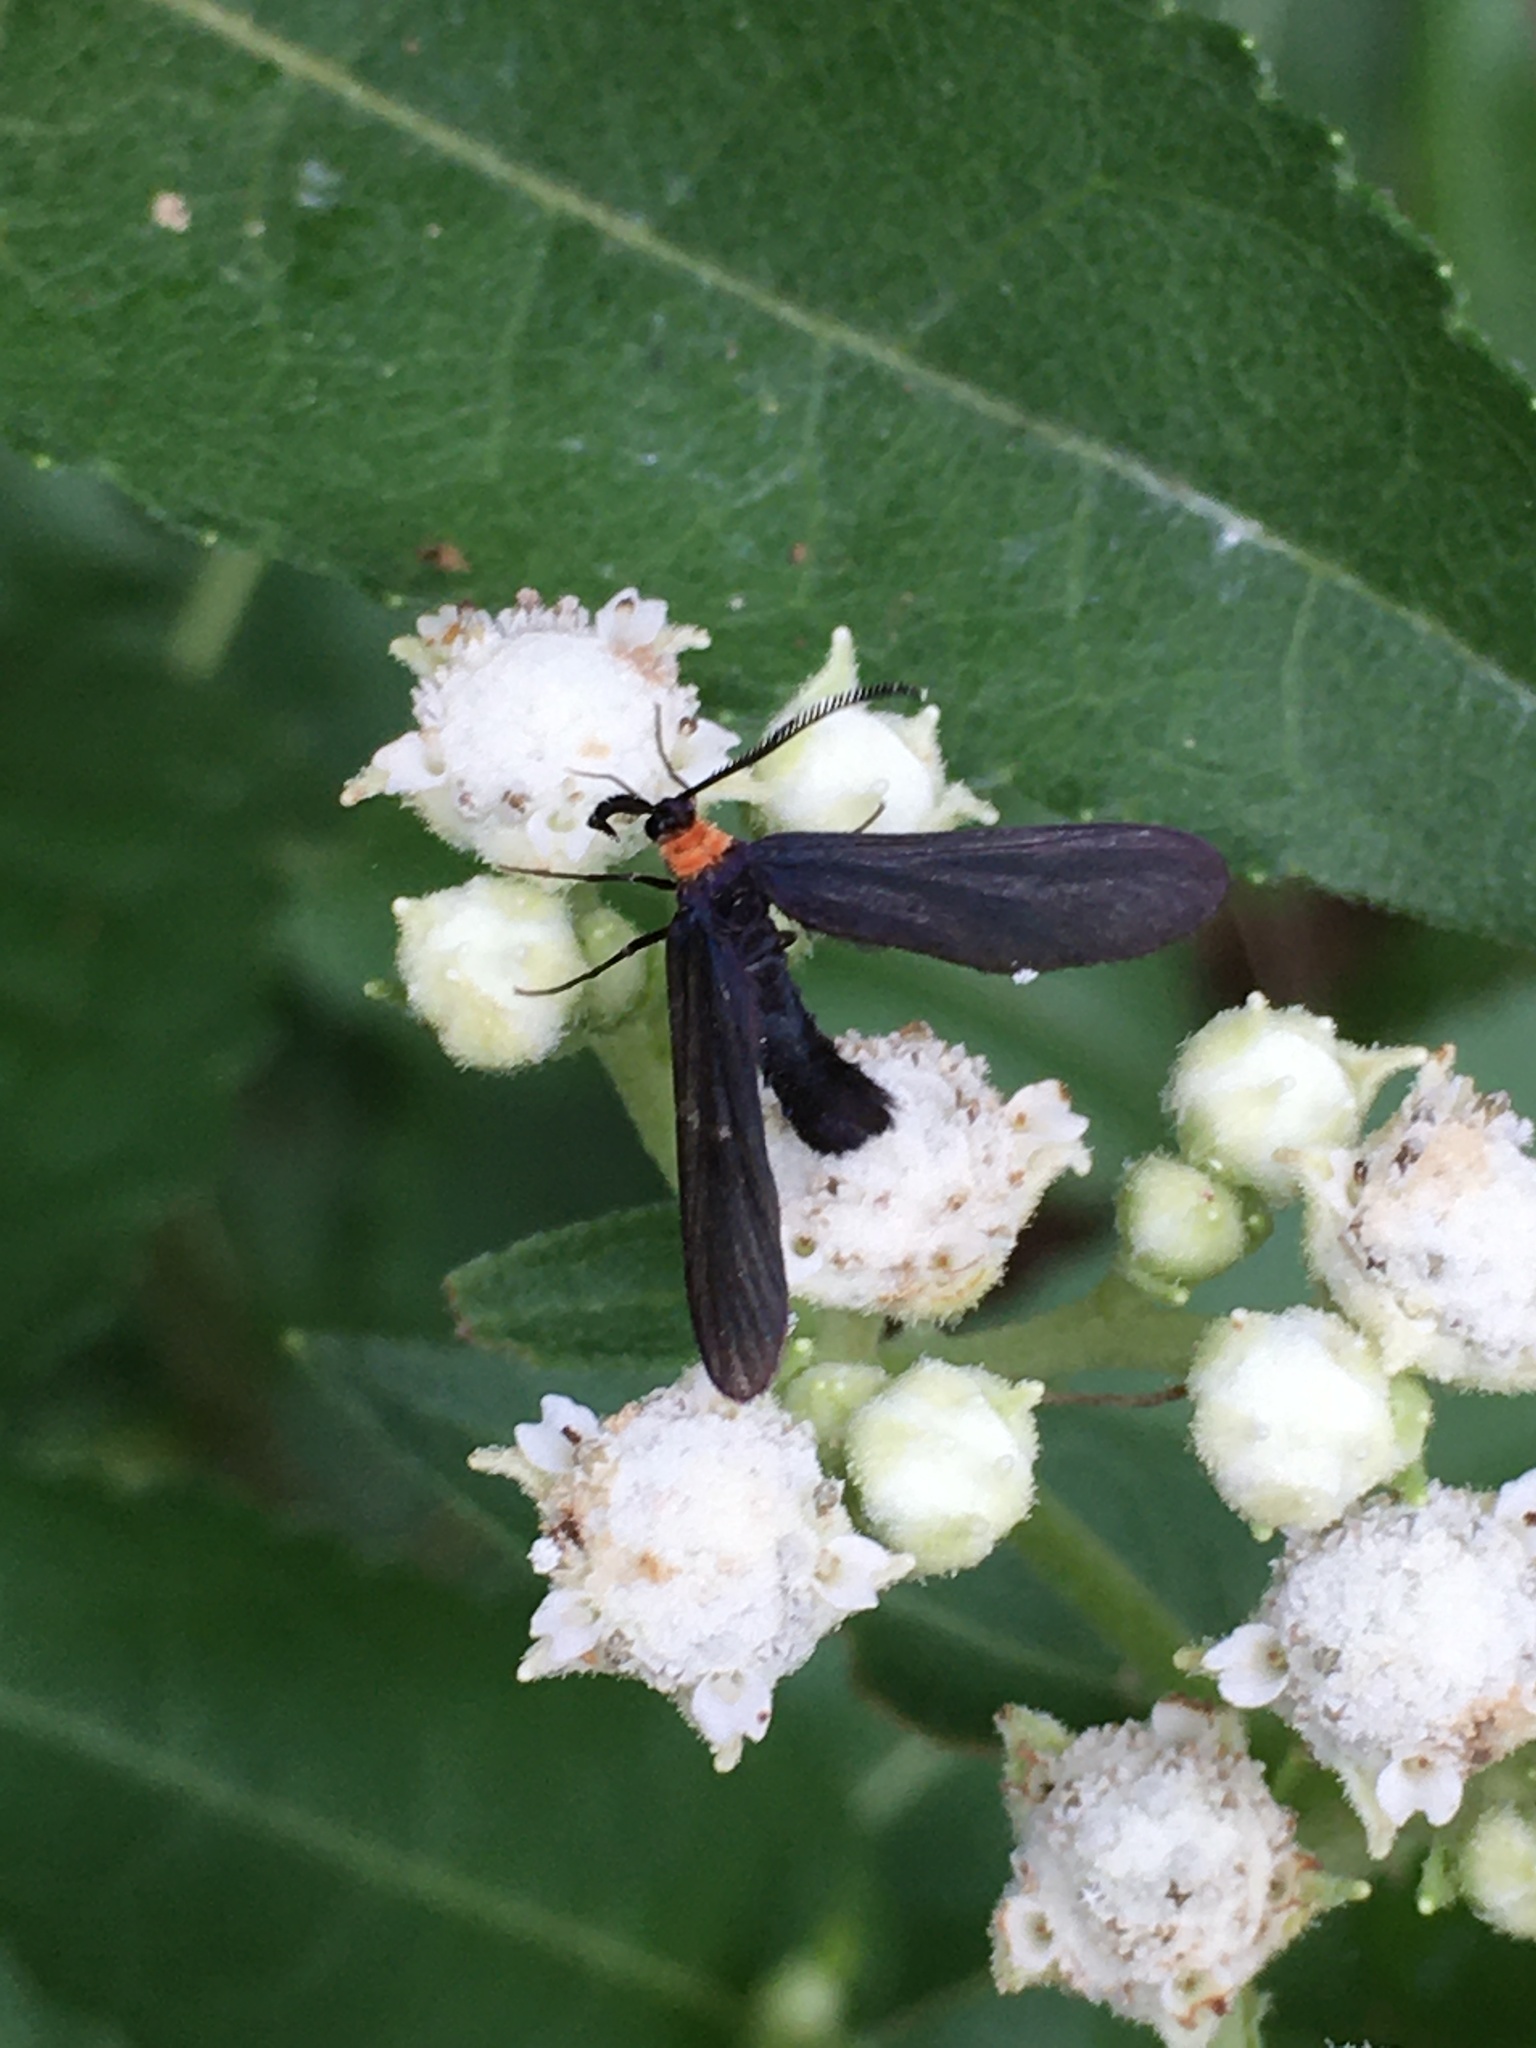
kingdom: Animalia
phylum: Arthropoda
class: Insecta
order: Lepidoptera
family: Zygaenidae
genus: Harrisina
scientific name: Harrisina americana
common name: Grapeleaf skeletonizer moth
